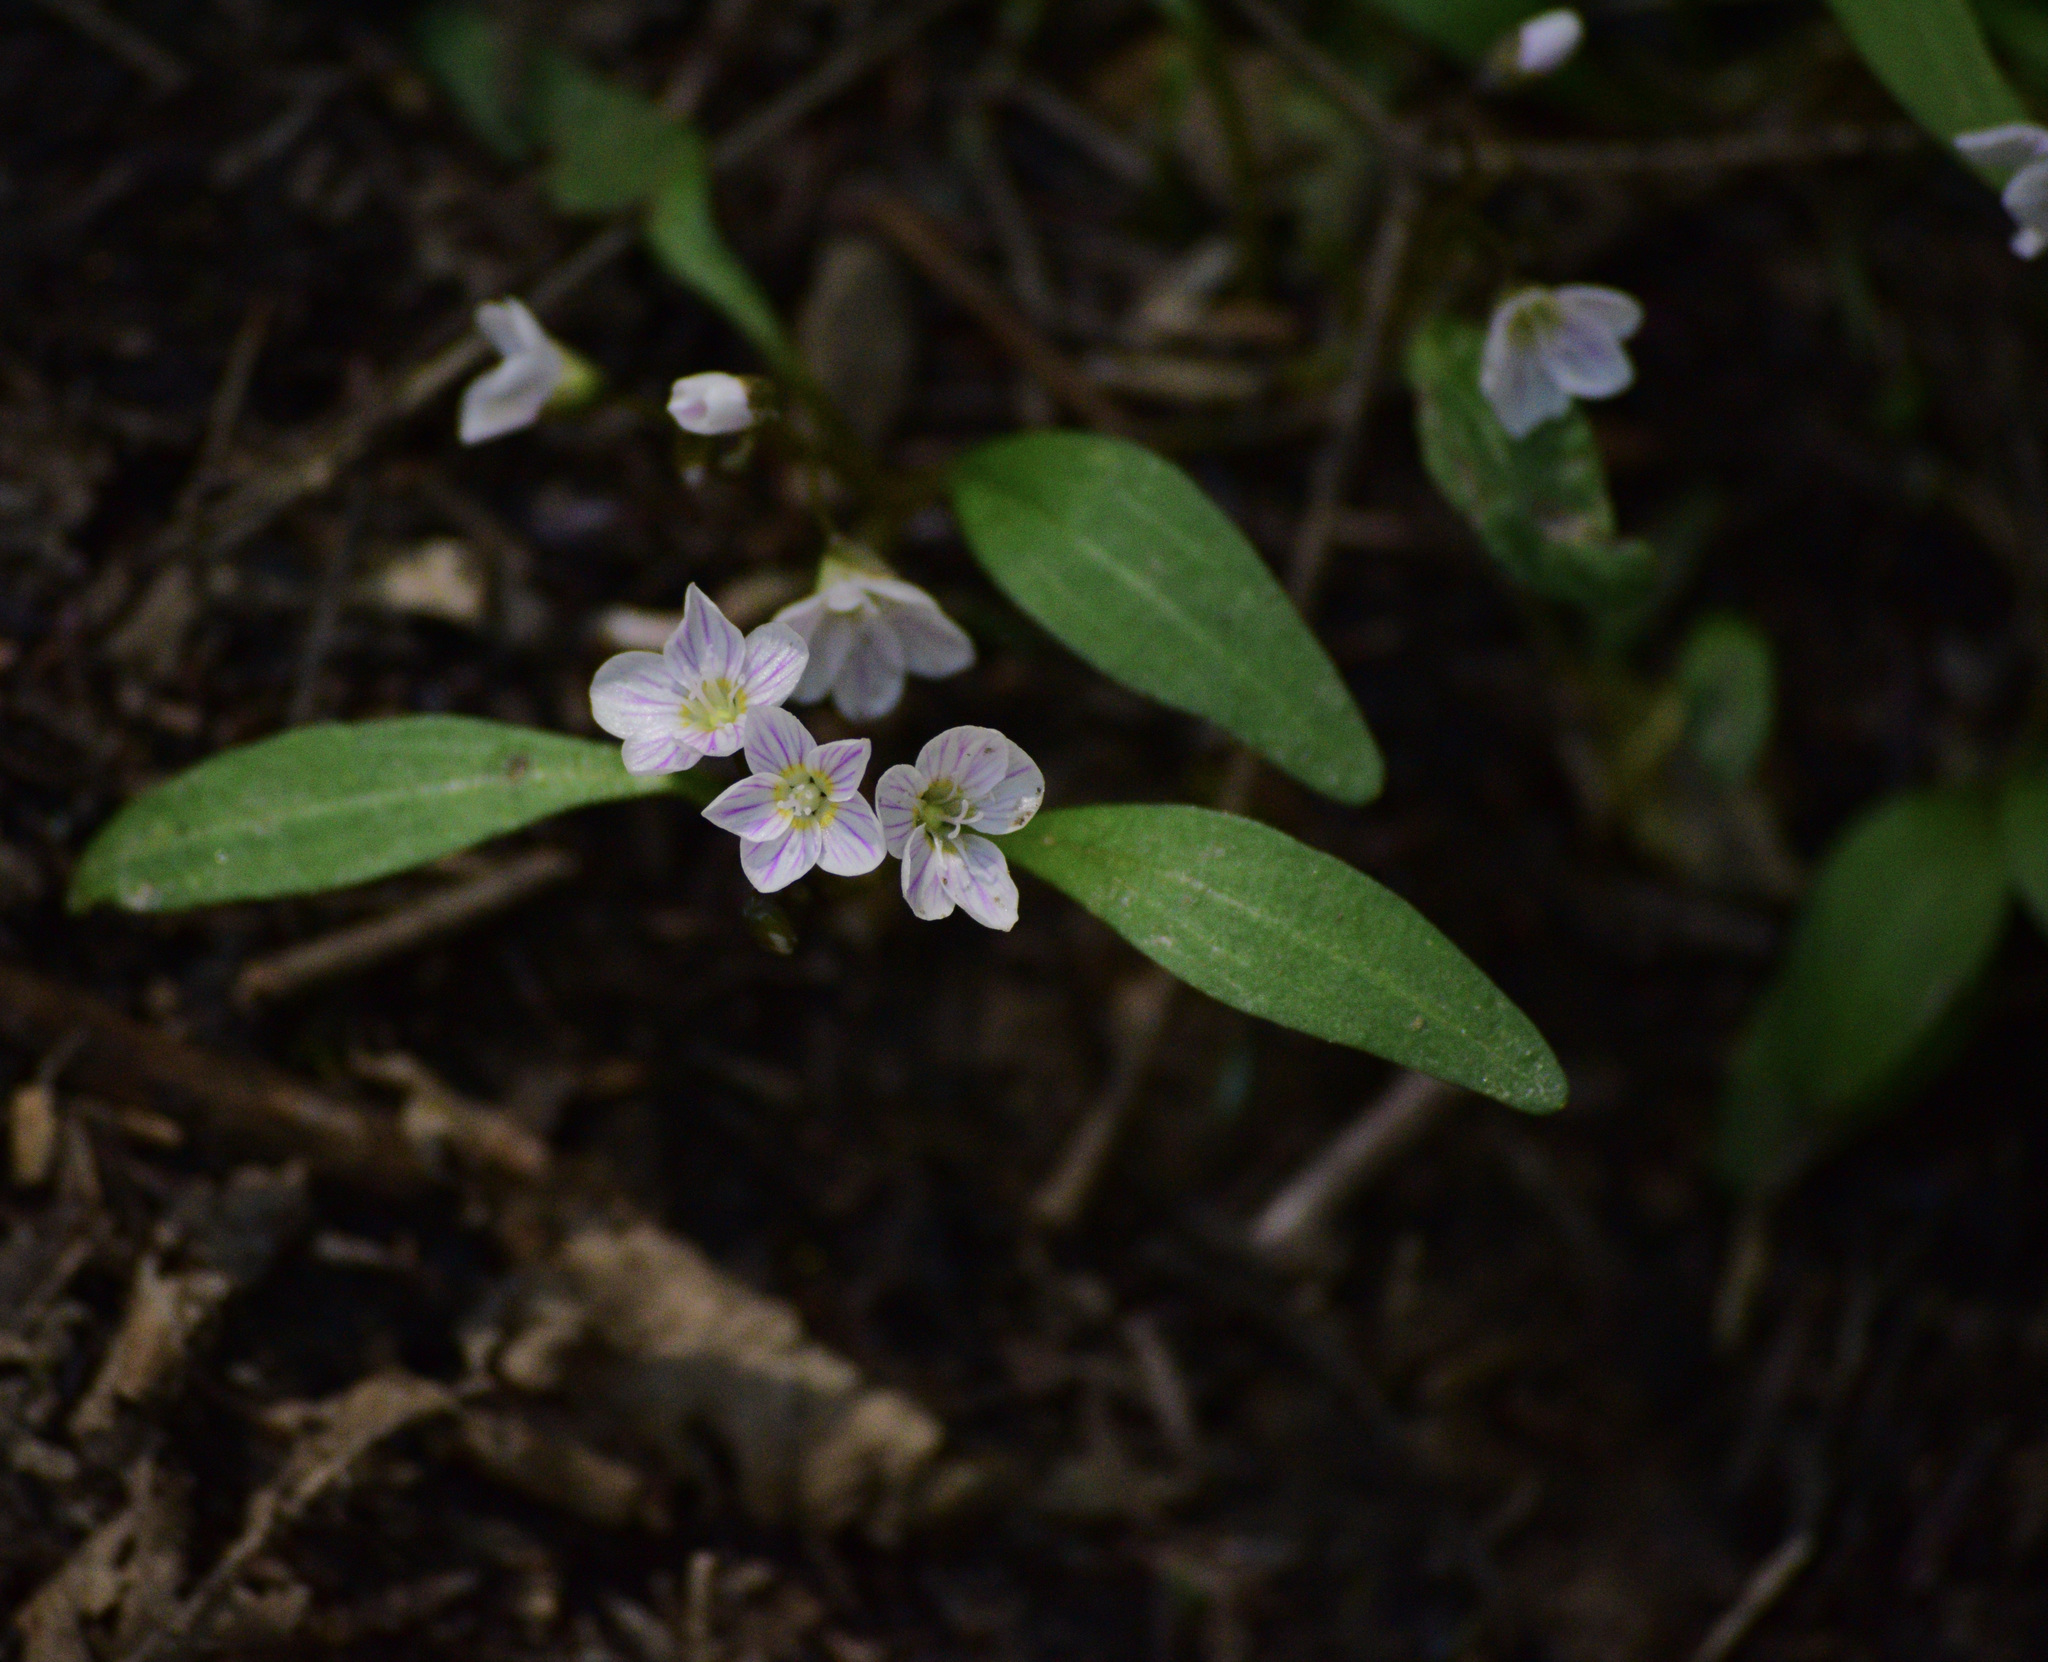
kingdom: Plantae
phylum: Tracheophyta
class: Magnoliopsida
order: Caryophyllales
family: Montiaceae
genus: Claytonia
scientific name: Claytonia caroliniana
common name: Carolina spring beauty
